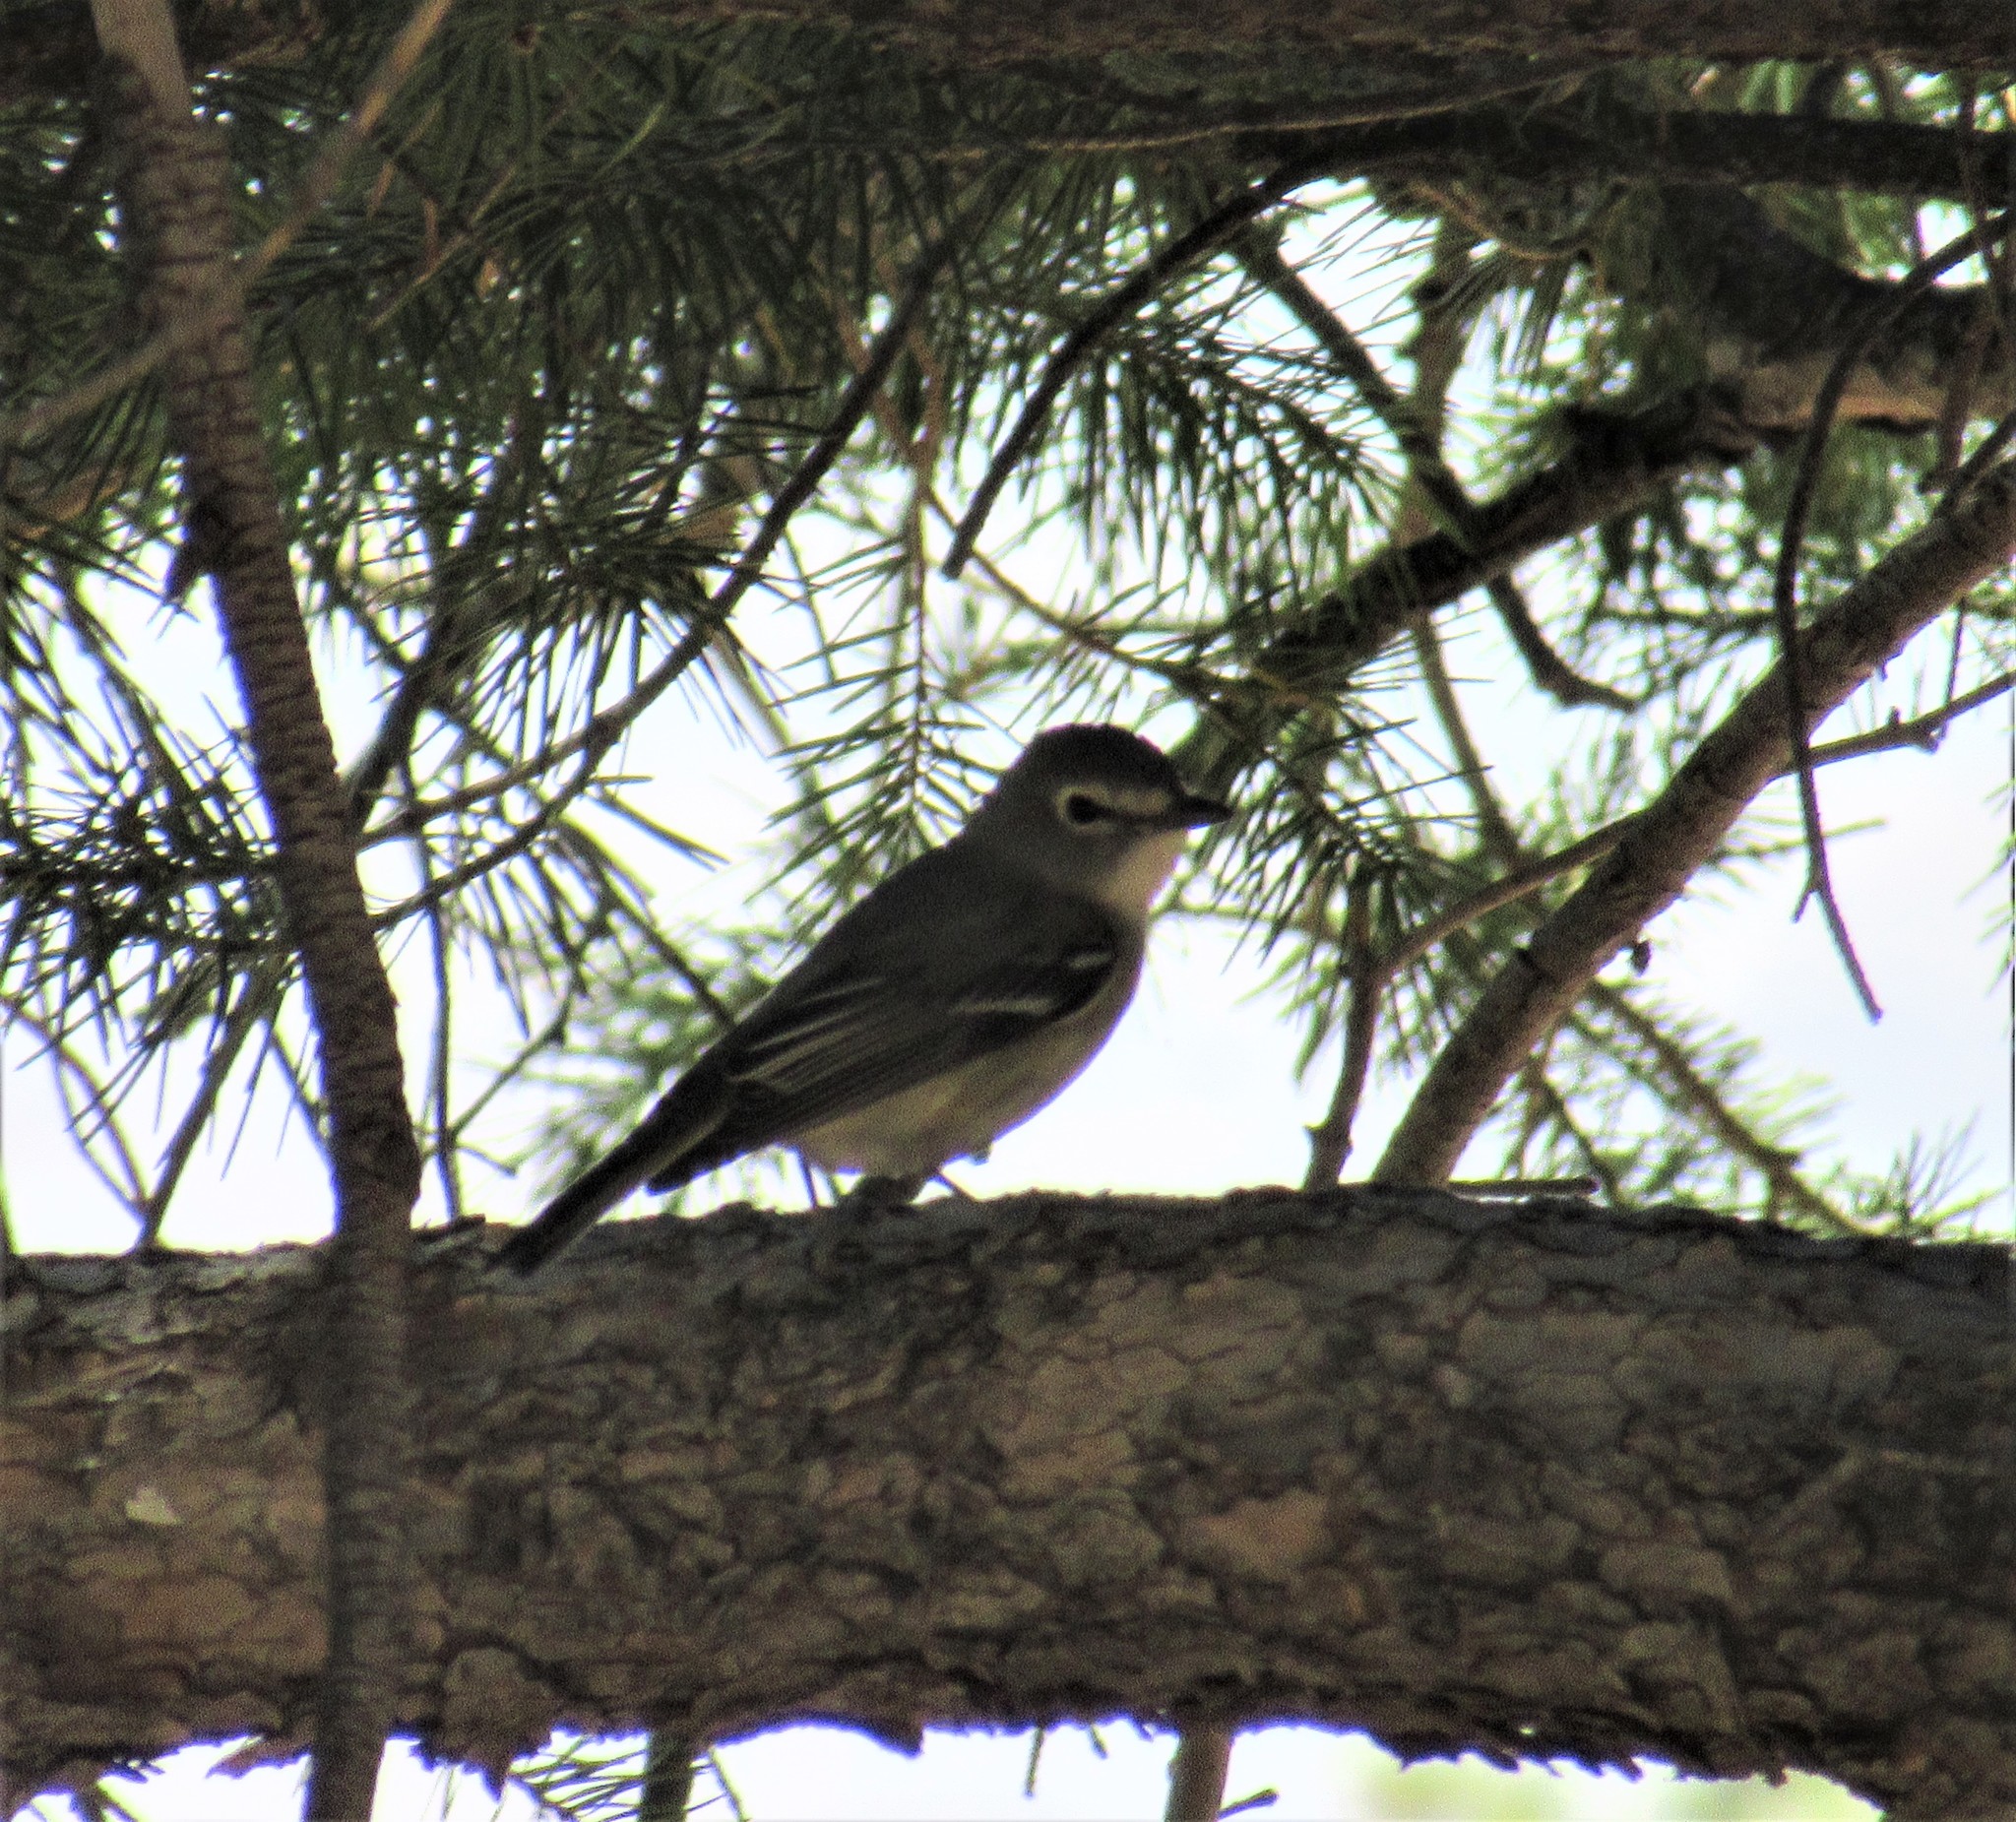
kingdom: Animalia
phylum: Chordata
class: Aves
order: Passeriformes
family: Vireonidae
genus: Vireo
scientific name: Vireo plumbeus
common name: Plumbeous vireo
